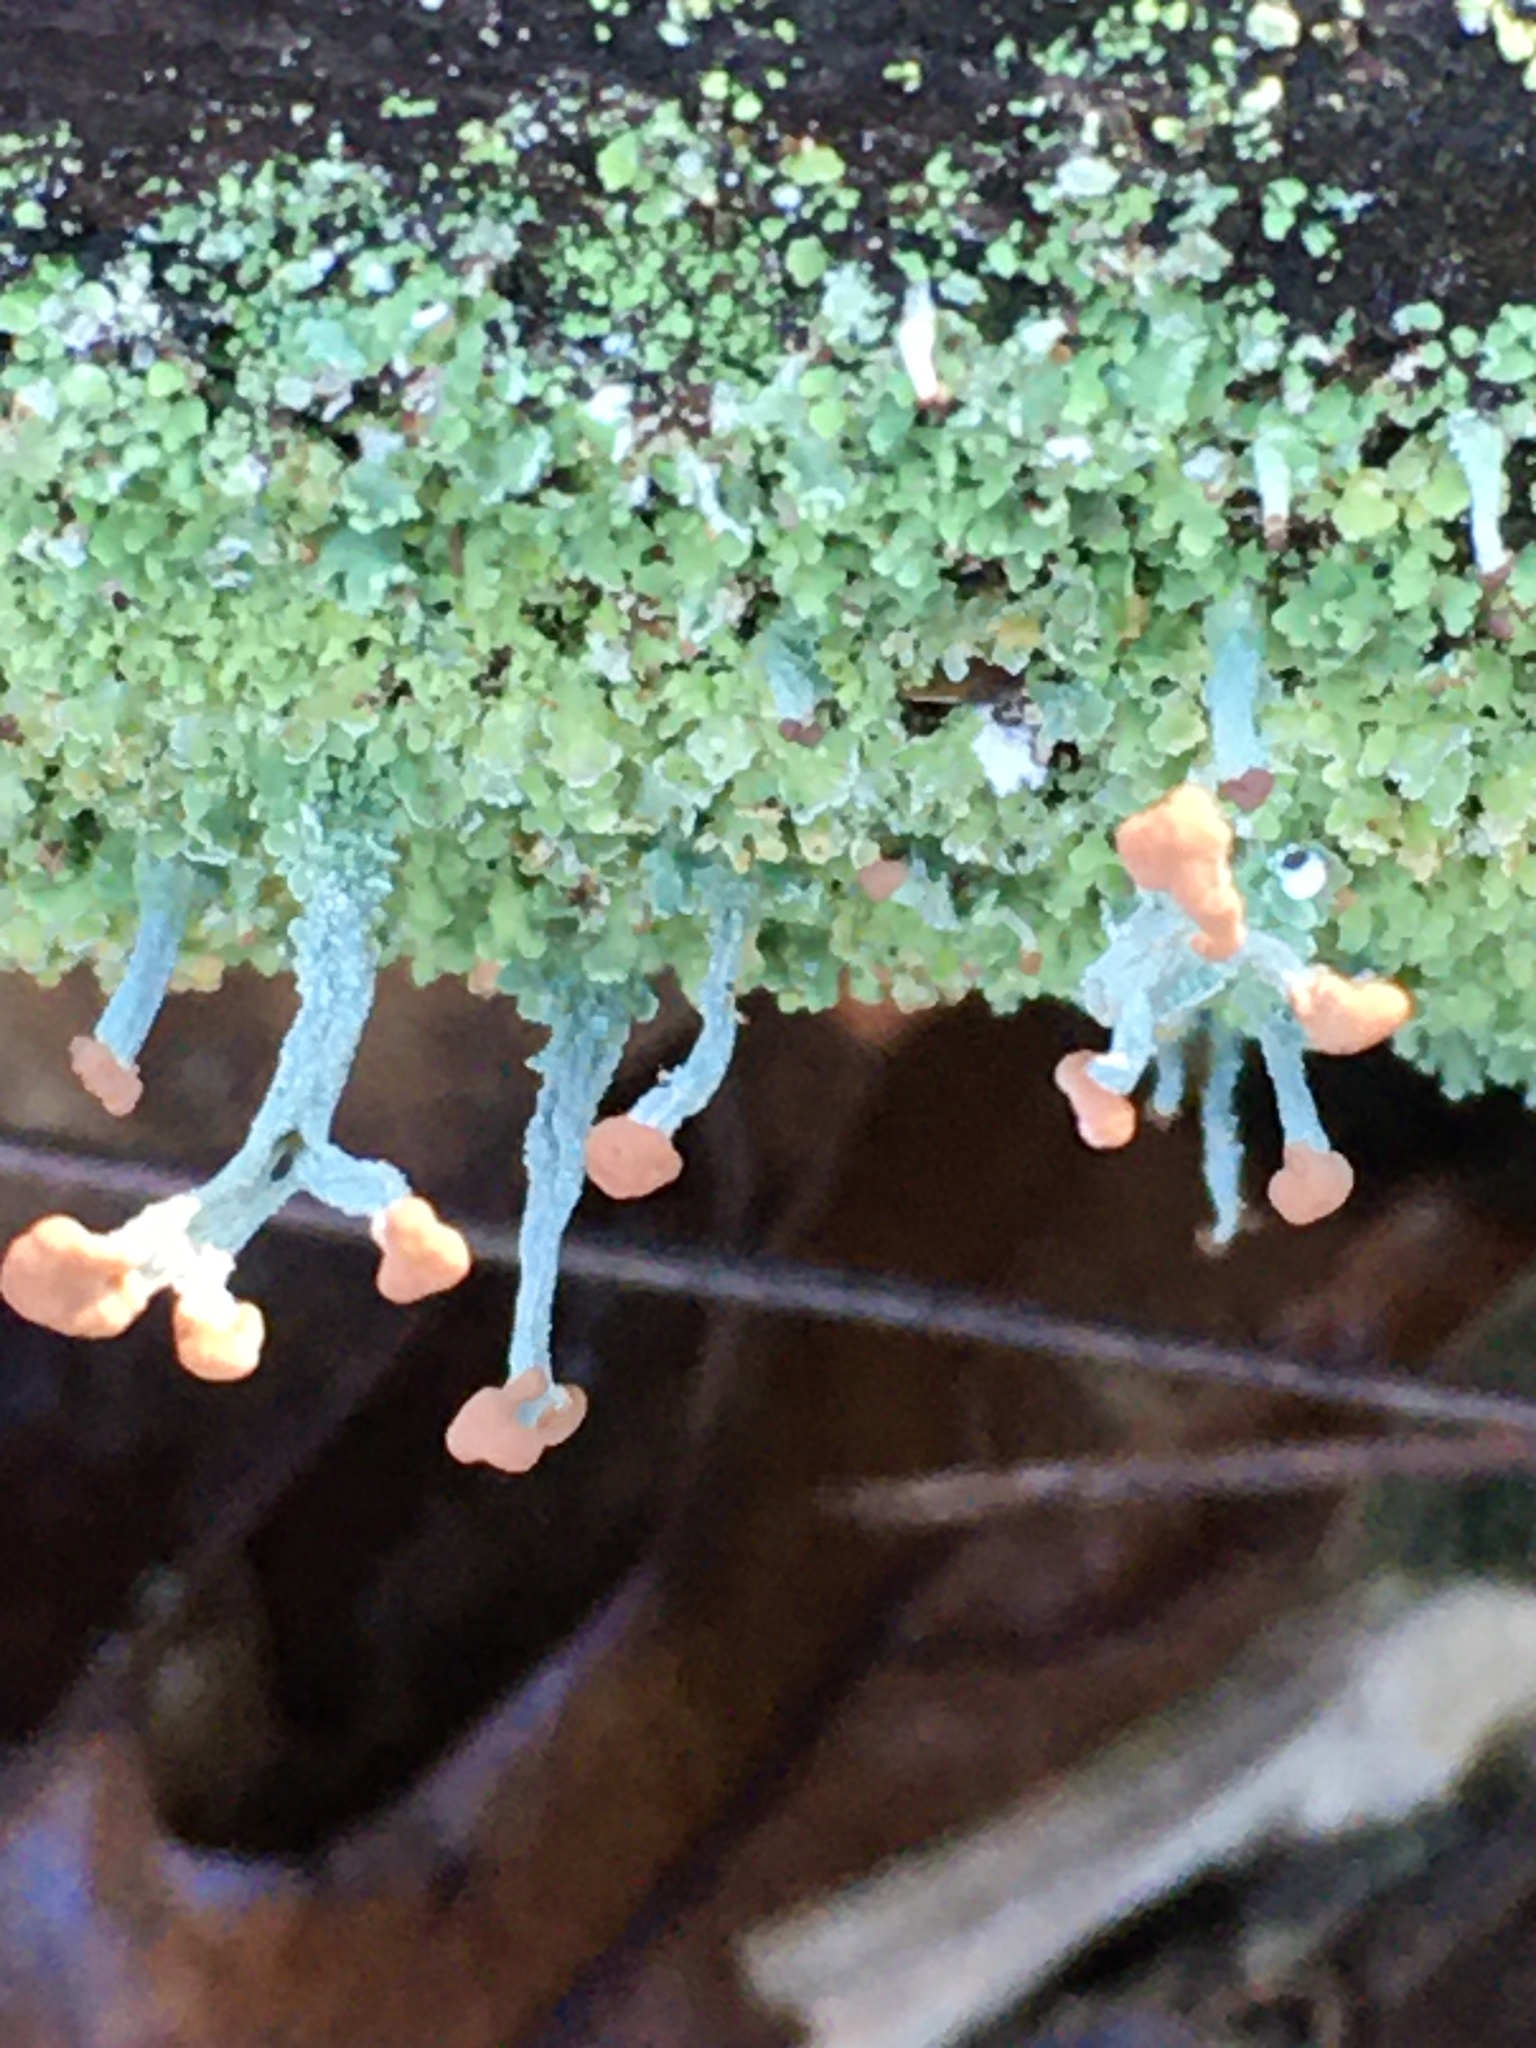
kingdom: Fungi
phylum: Ascomycota
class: Lecanoromycetes
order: Lecanorales
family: Cladoniaceae
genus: Cladonia
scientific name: Cladonia peziziformis
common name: Cup lichen
